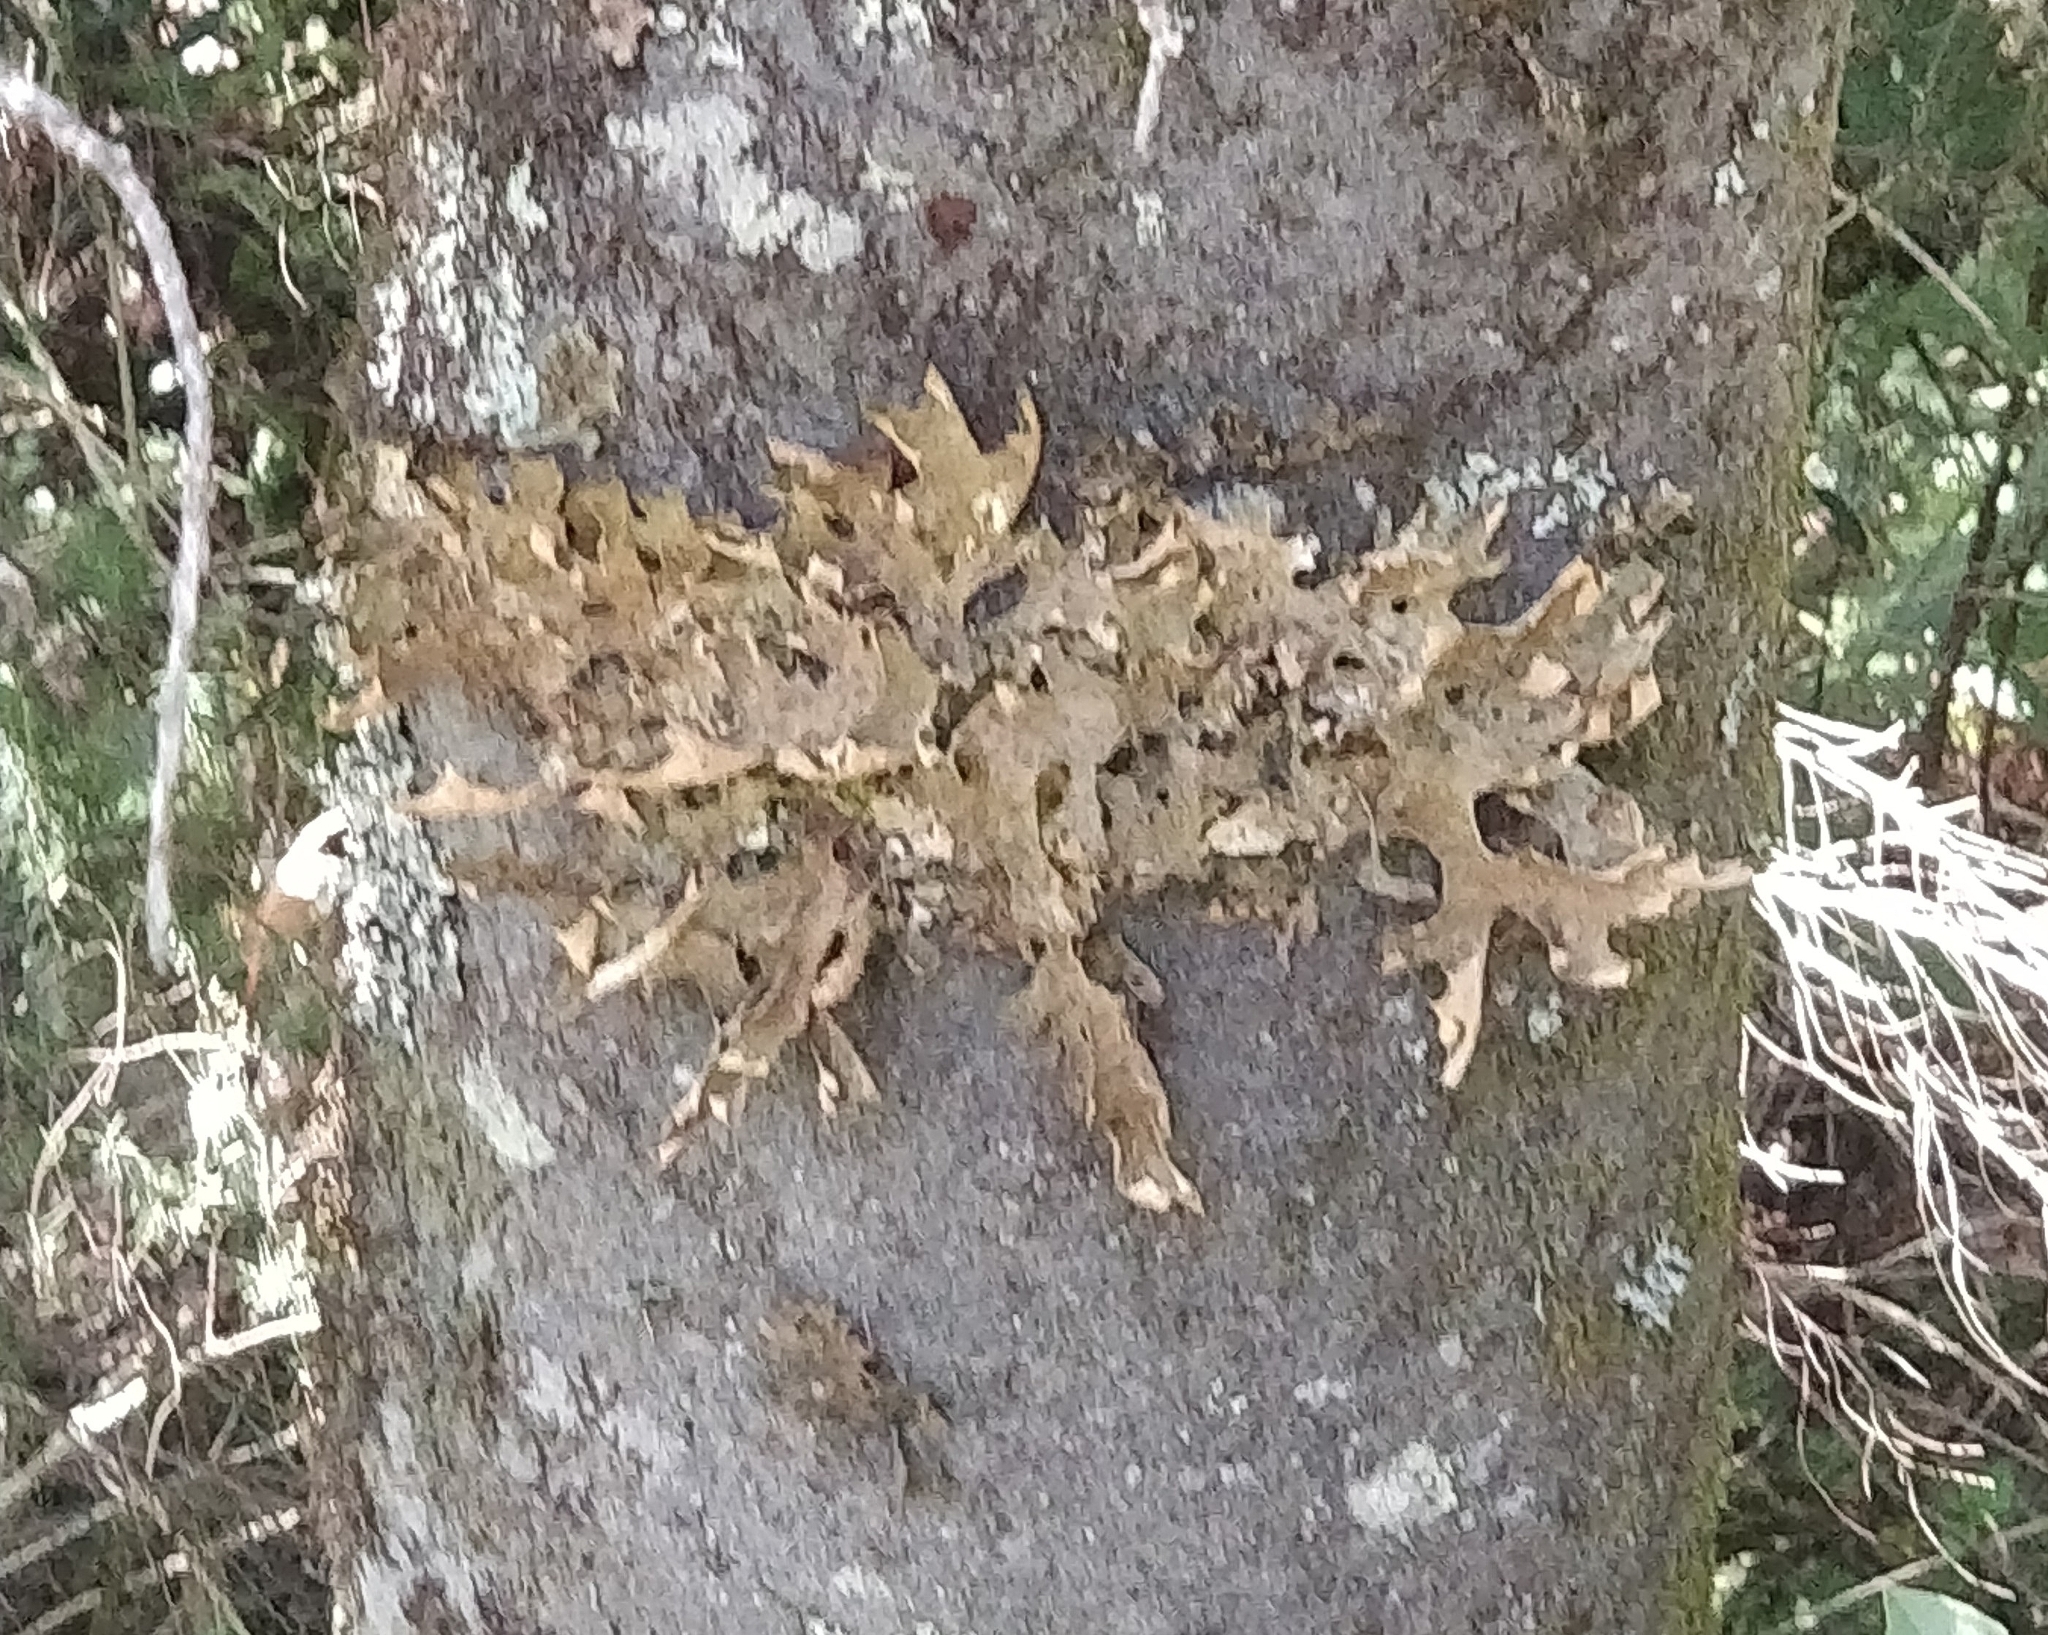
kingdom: Fungi
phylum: Ascomycota
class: Lecanoromycetes
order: Peltigerales
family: Lobariaceae
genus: Lobaria
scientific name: Lobaria pulmonaria
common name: Lungwort
